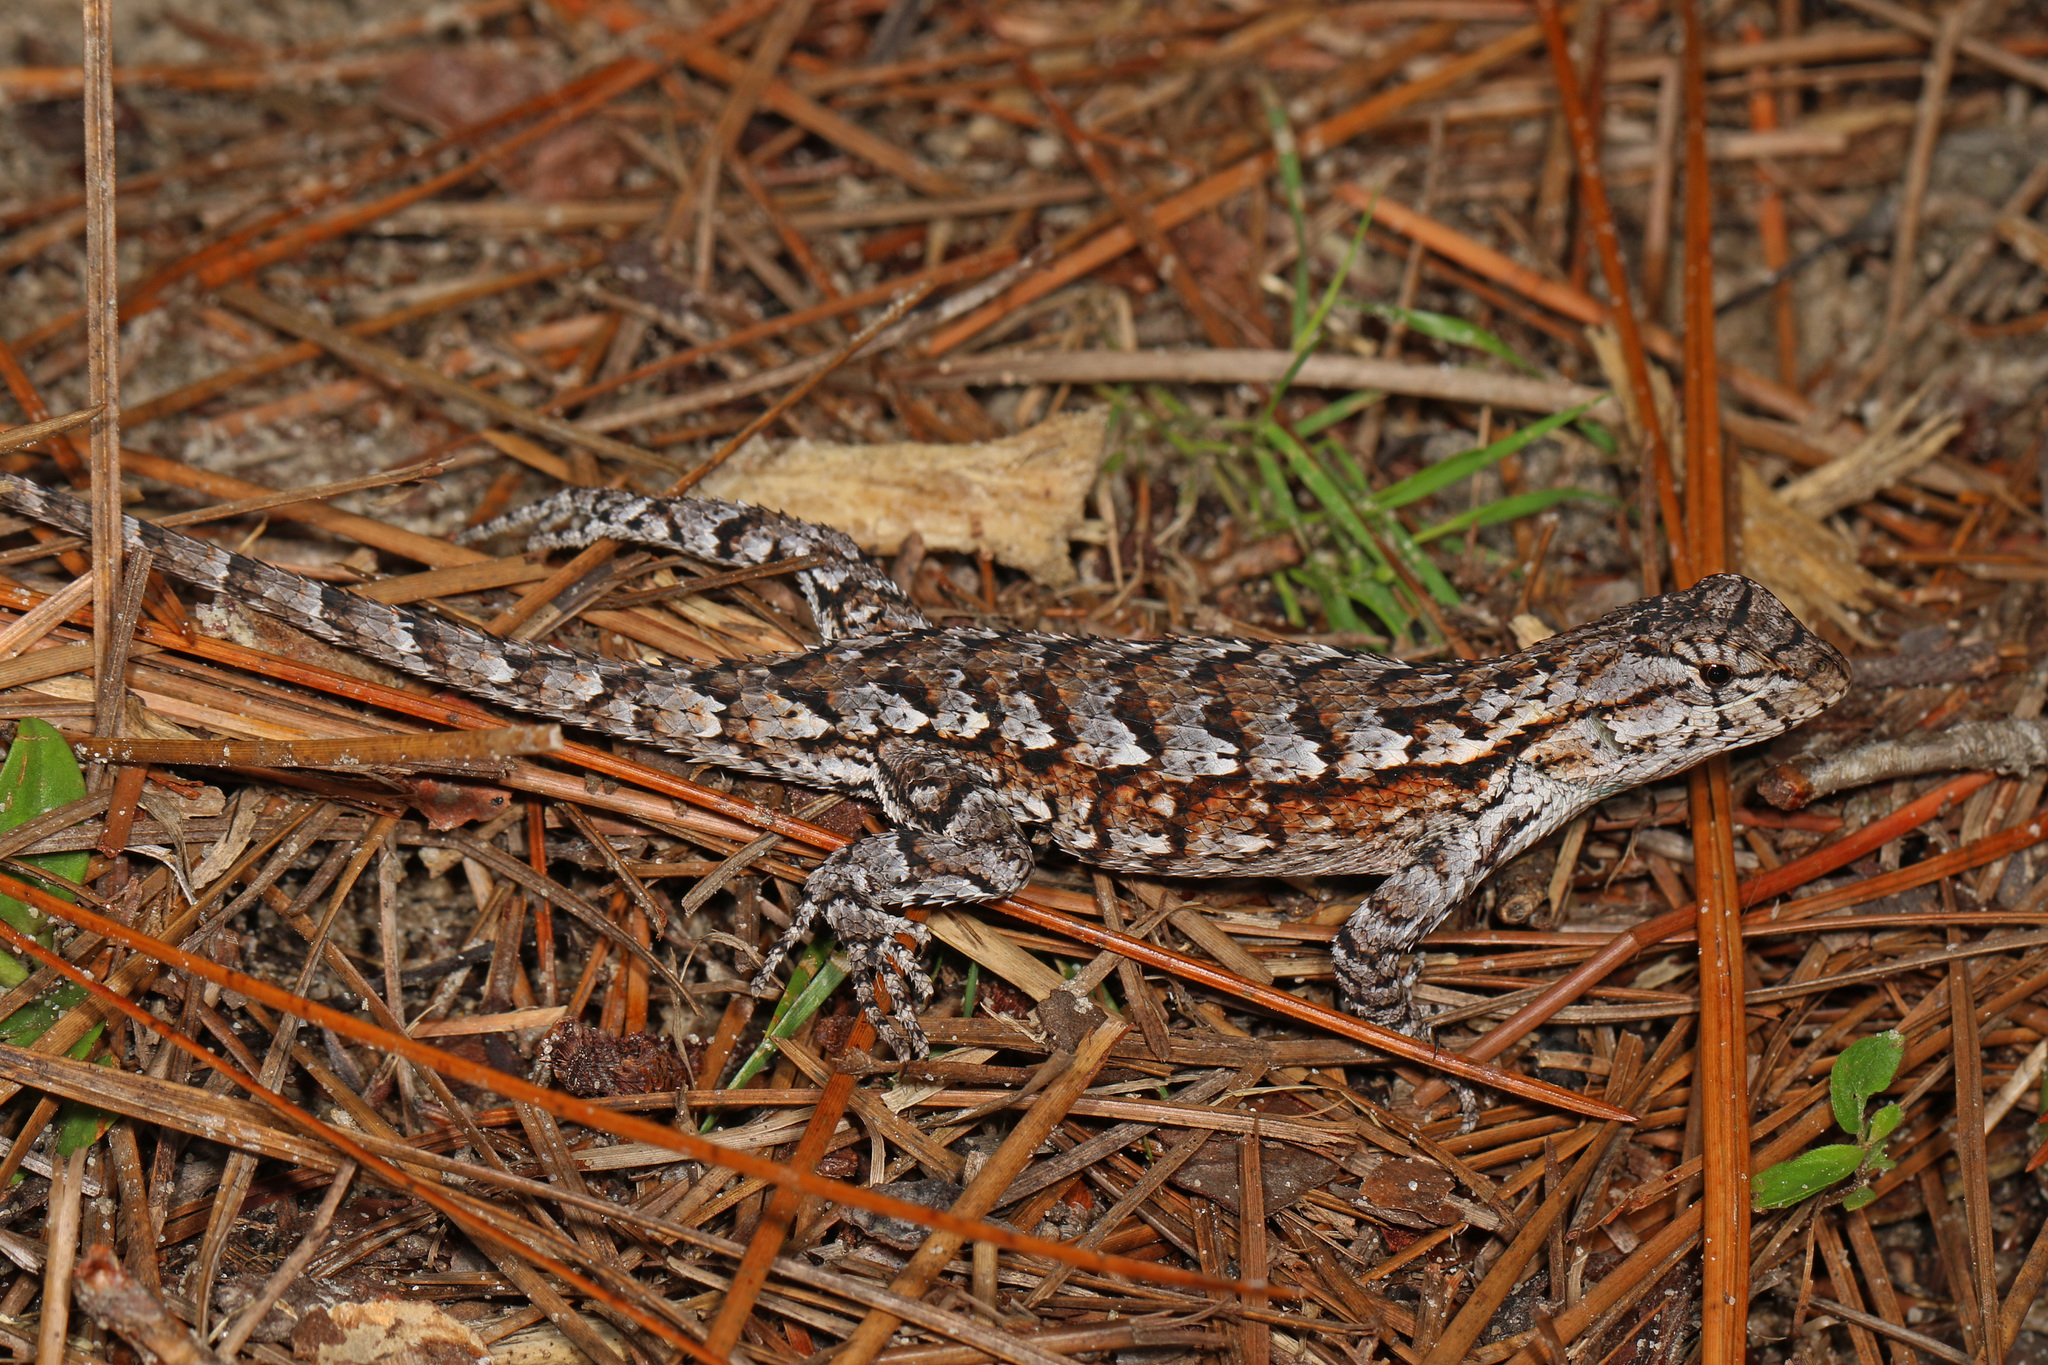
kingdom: Animalia
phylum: Chordata
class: Squamata
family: Phrynosomatidae
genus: Sceloporus
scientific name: Sceloporus undulatus
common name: Eastern fence lizard
